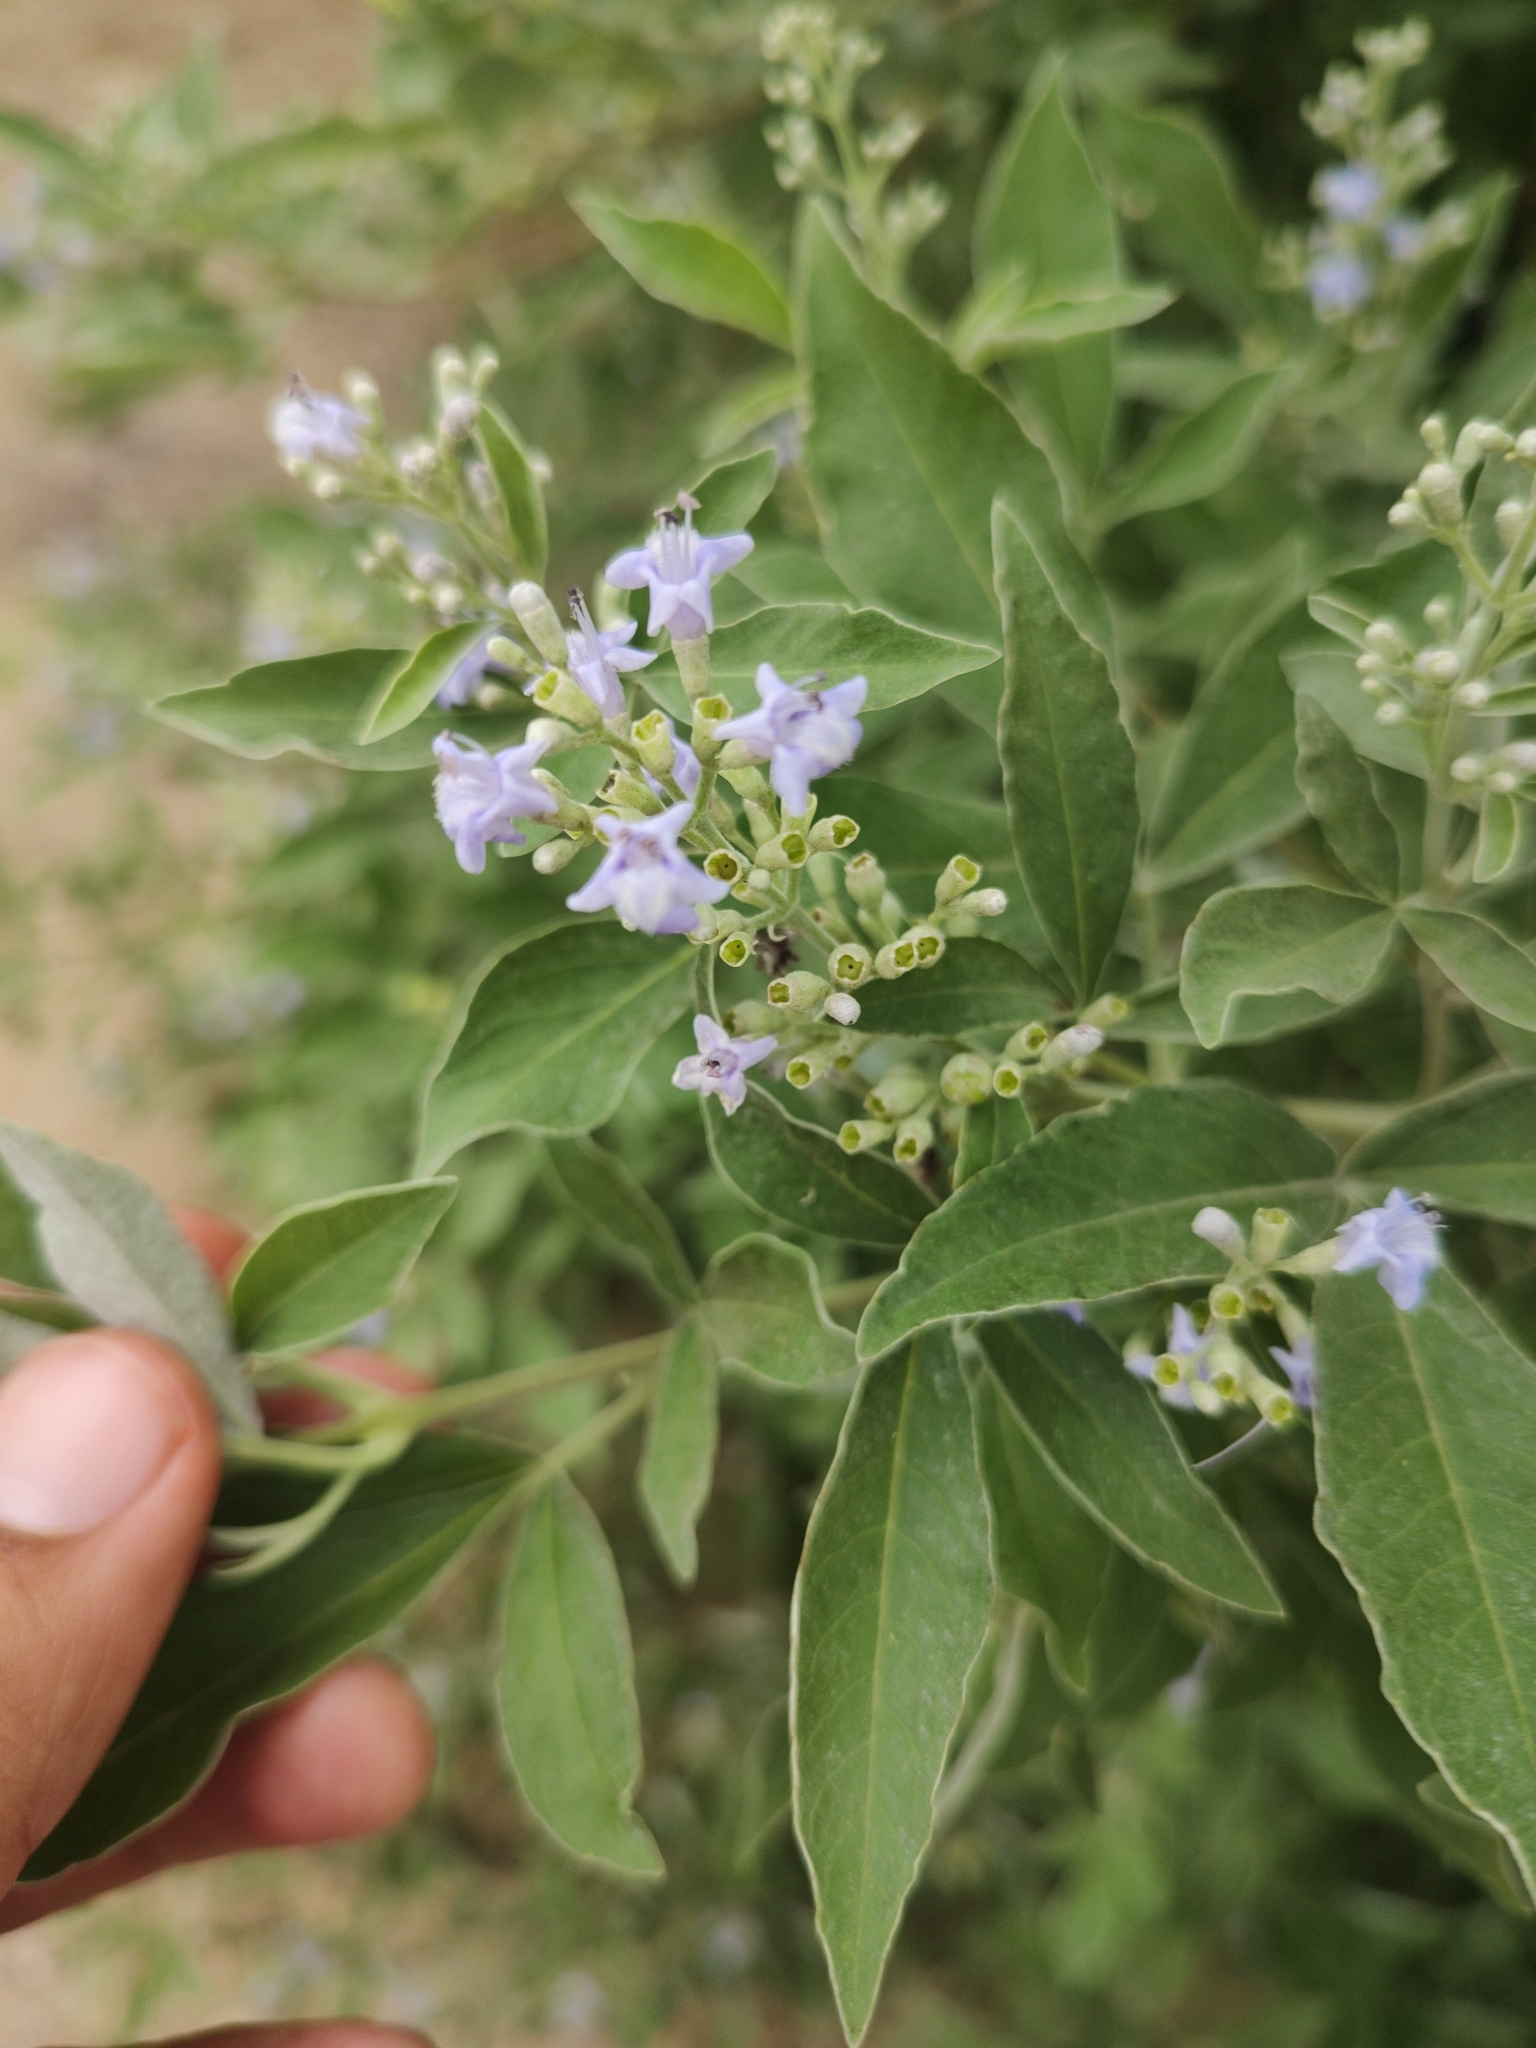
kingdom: Plantae
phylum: Tracheophyta
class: Magnoliopsida
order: Lamiales
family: Lamiaceae
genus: Vitex
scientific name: Vitex trifolia
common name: Simpleleaf chastetree
